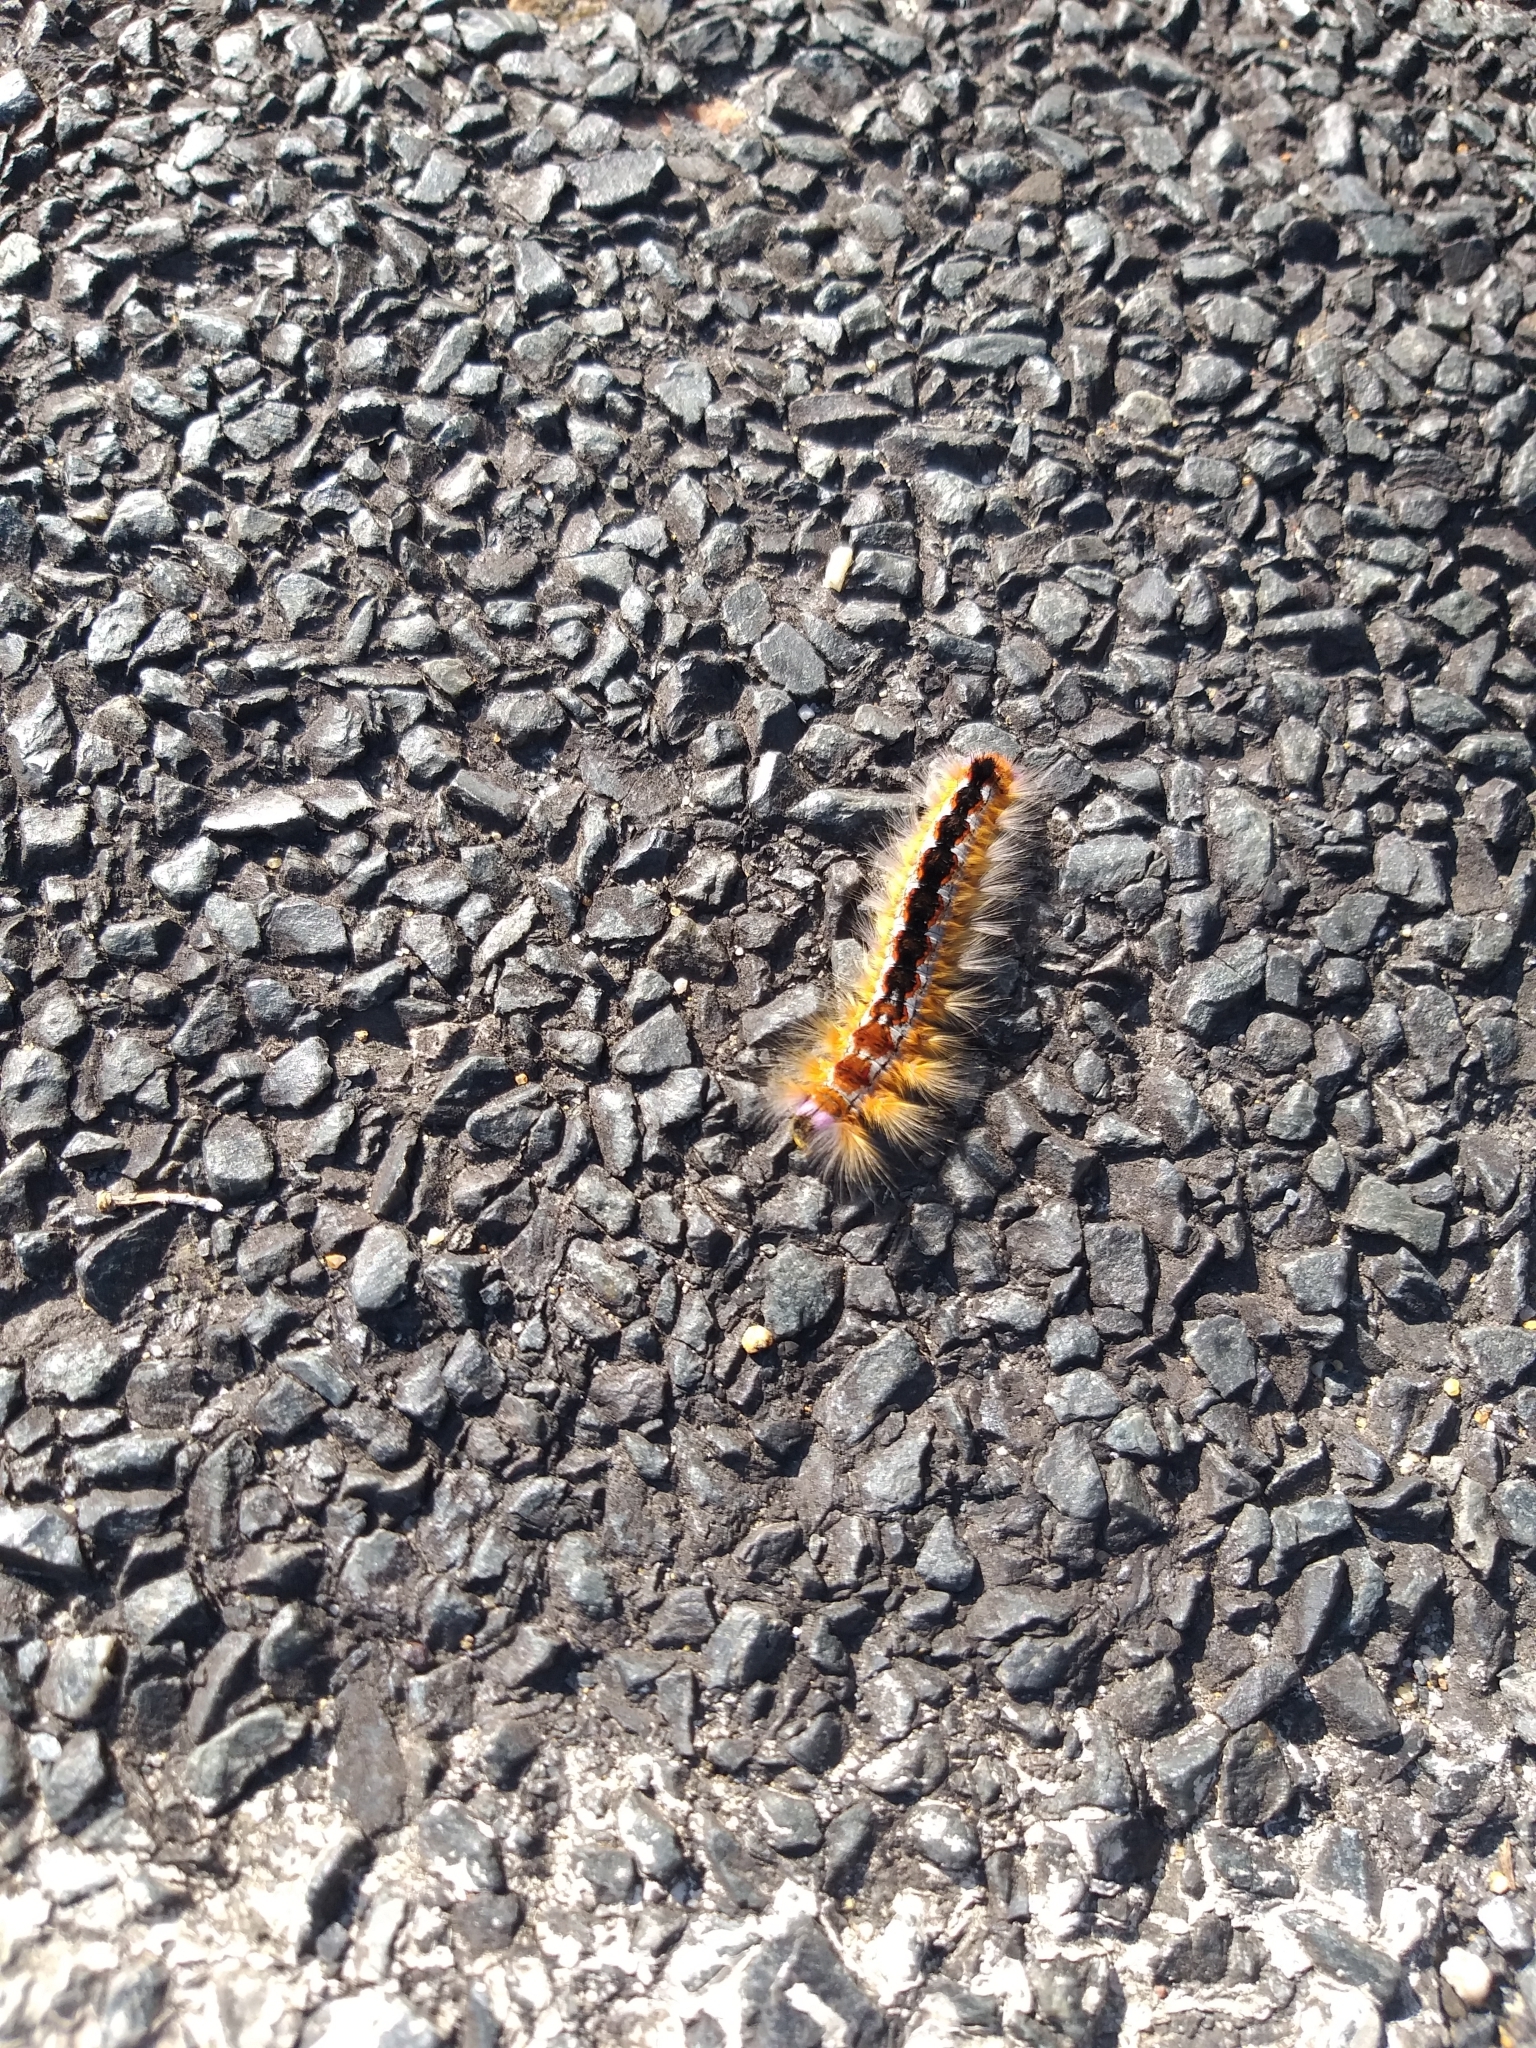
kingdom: Animalia
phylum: Arthropoda
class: Insecta
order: Lepidoptera
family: Lasiocampidae
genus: Eutricha
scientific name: Eutricha capensis
